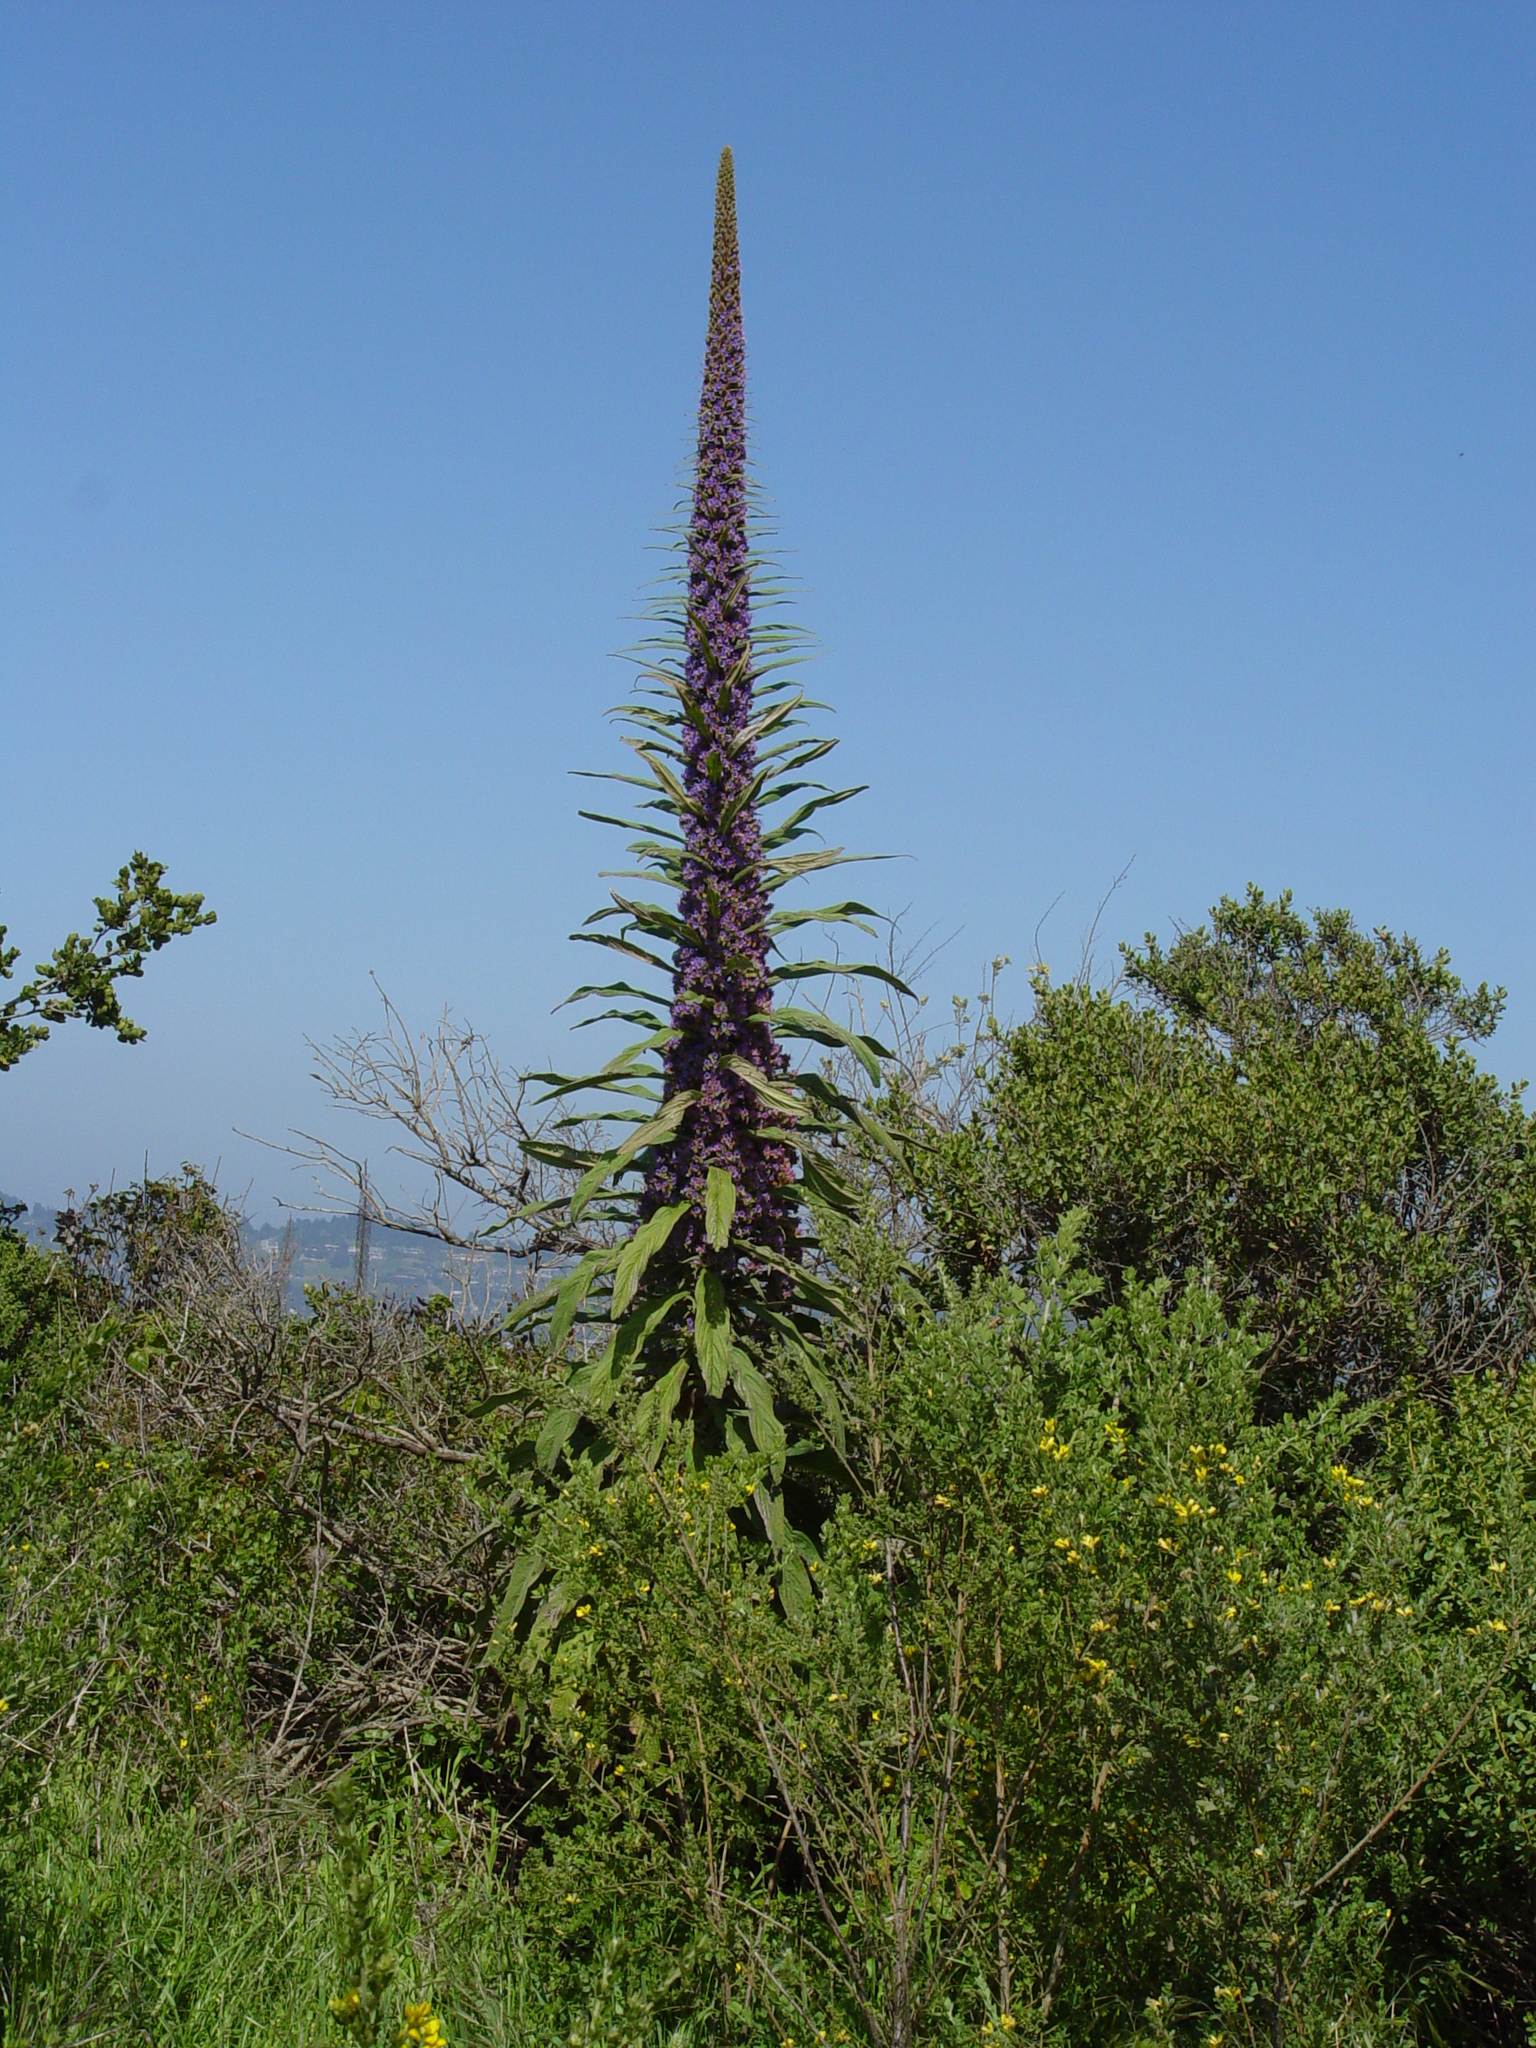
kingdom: Plantae
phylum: Tracheophyta
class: Magnoliopsida
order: Boraginales
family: Boraginaceae
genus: Echium
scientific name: Echium pininana
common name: Giant viper's-bugloss
